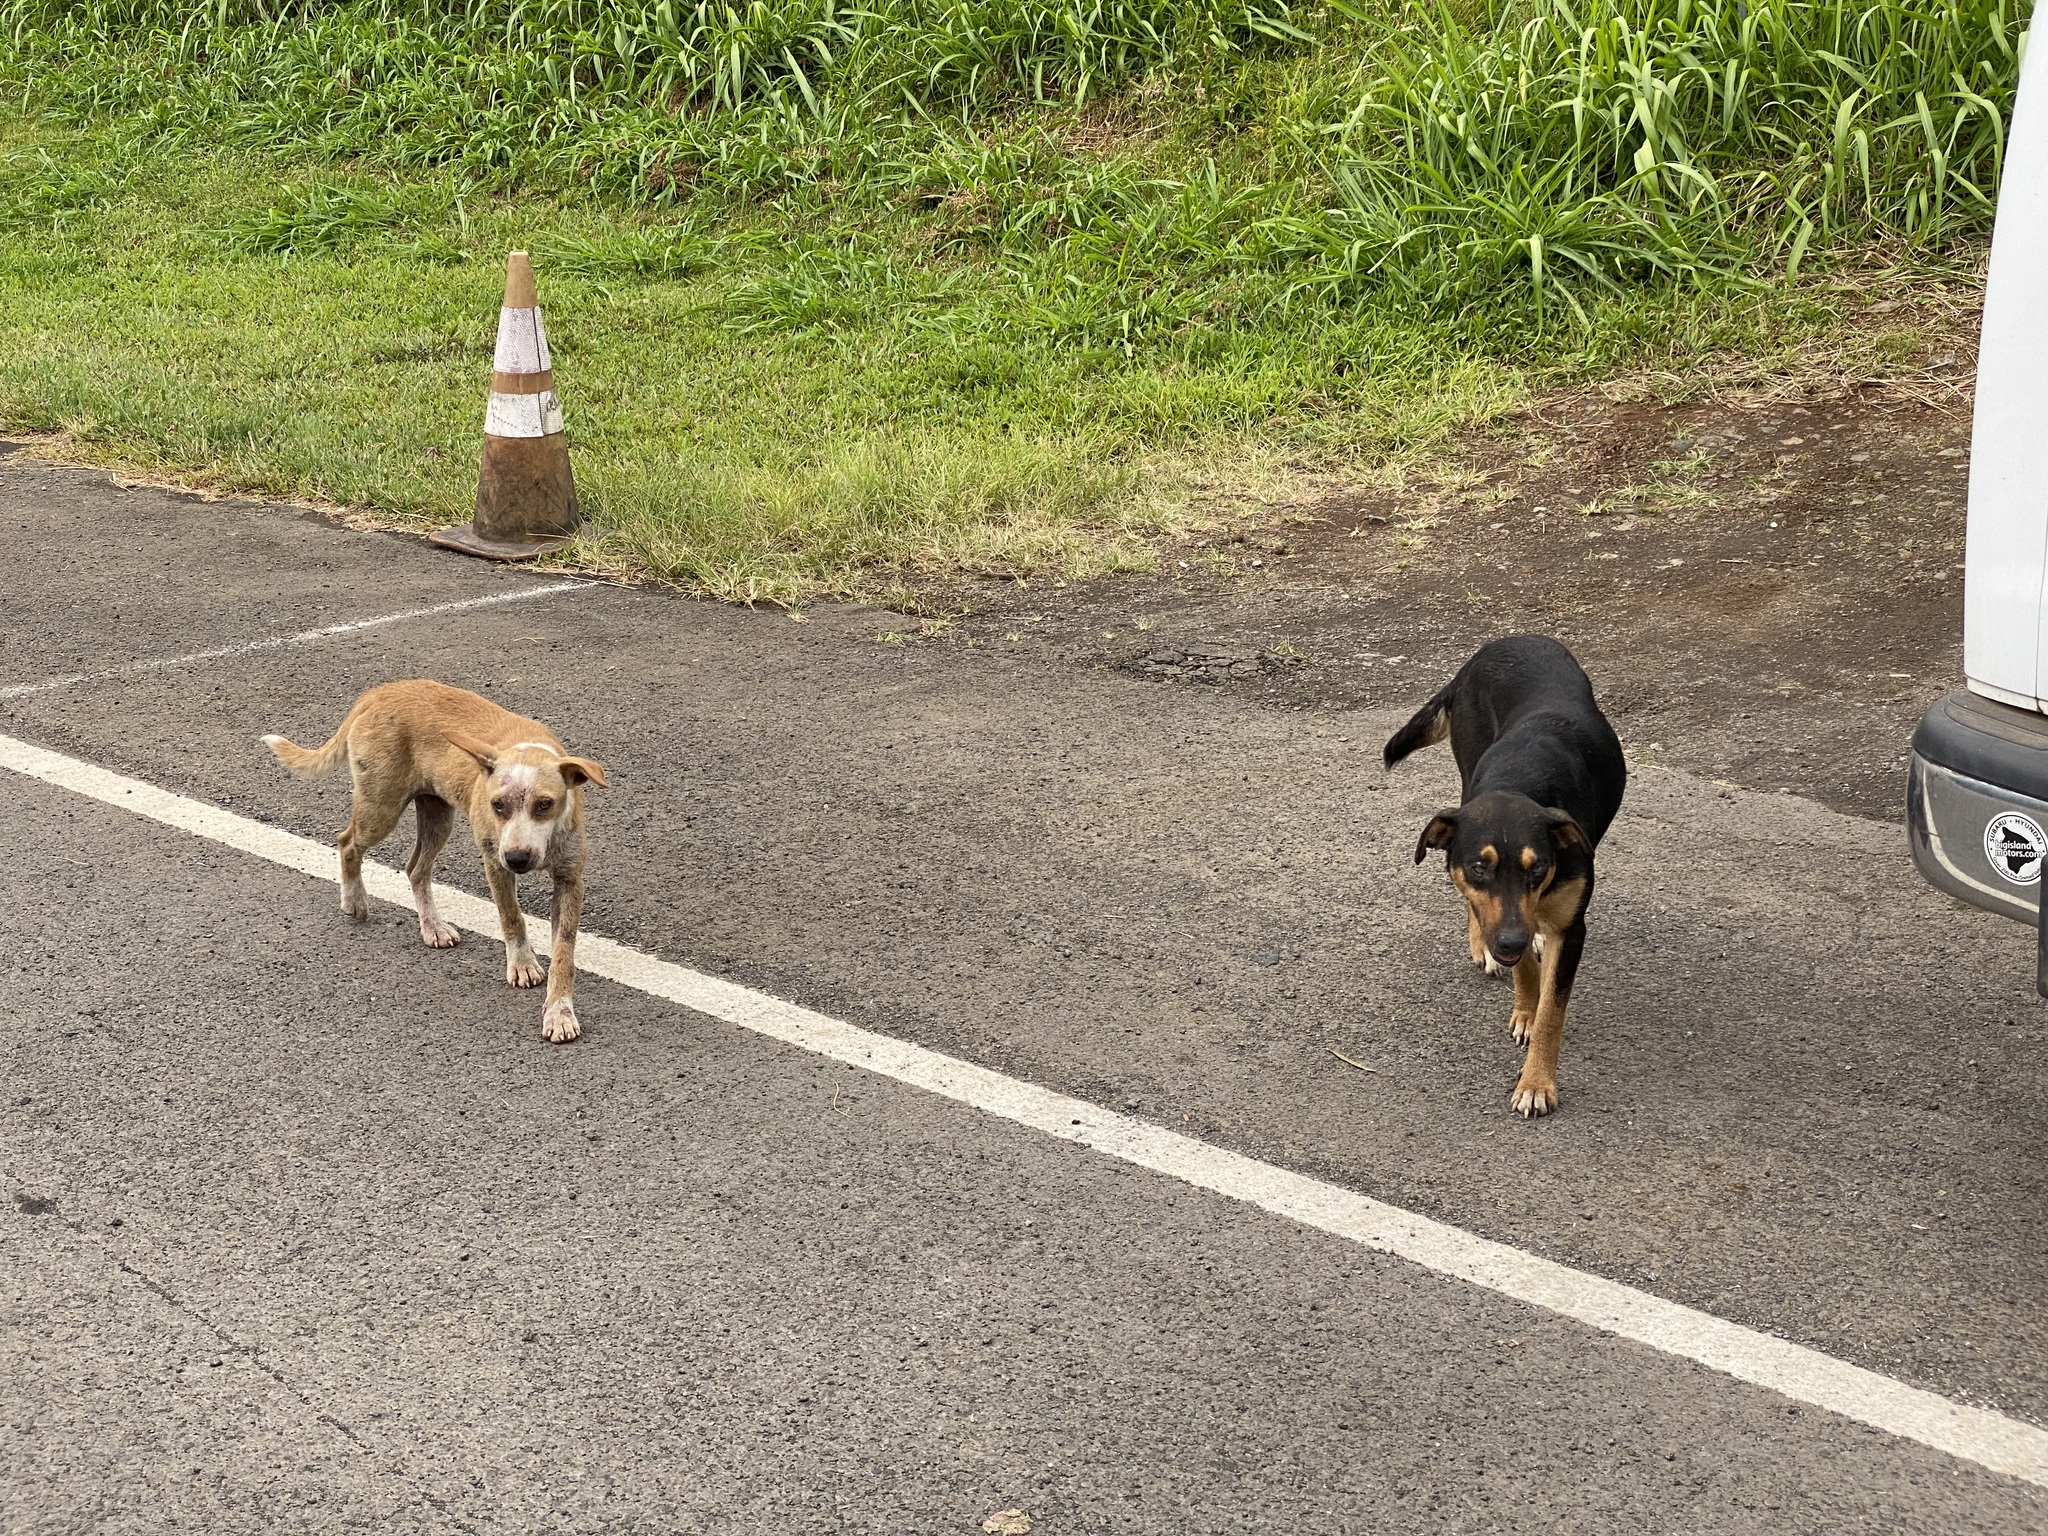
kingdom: Animalia
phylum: Chordata
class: Mammalia
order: Carnivora
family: Canidae
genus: Canis
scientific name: Canis lupus
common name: Gray wolf
